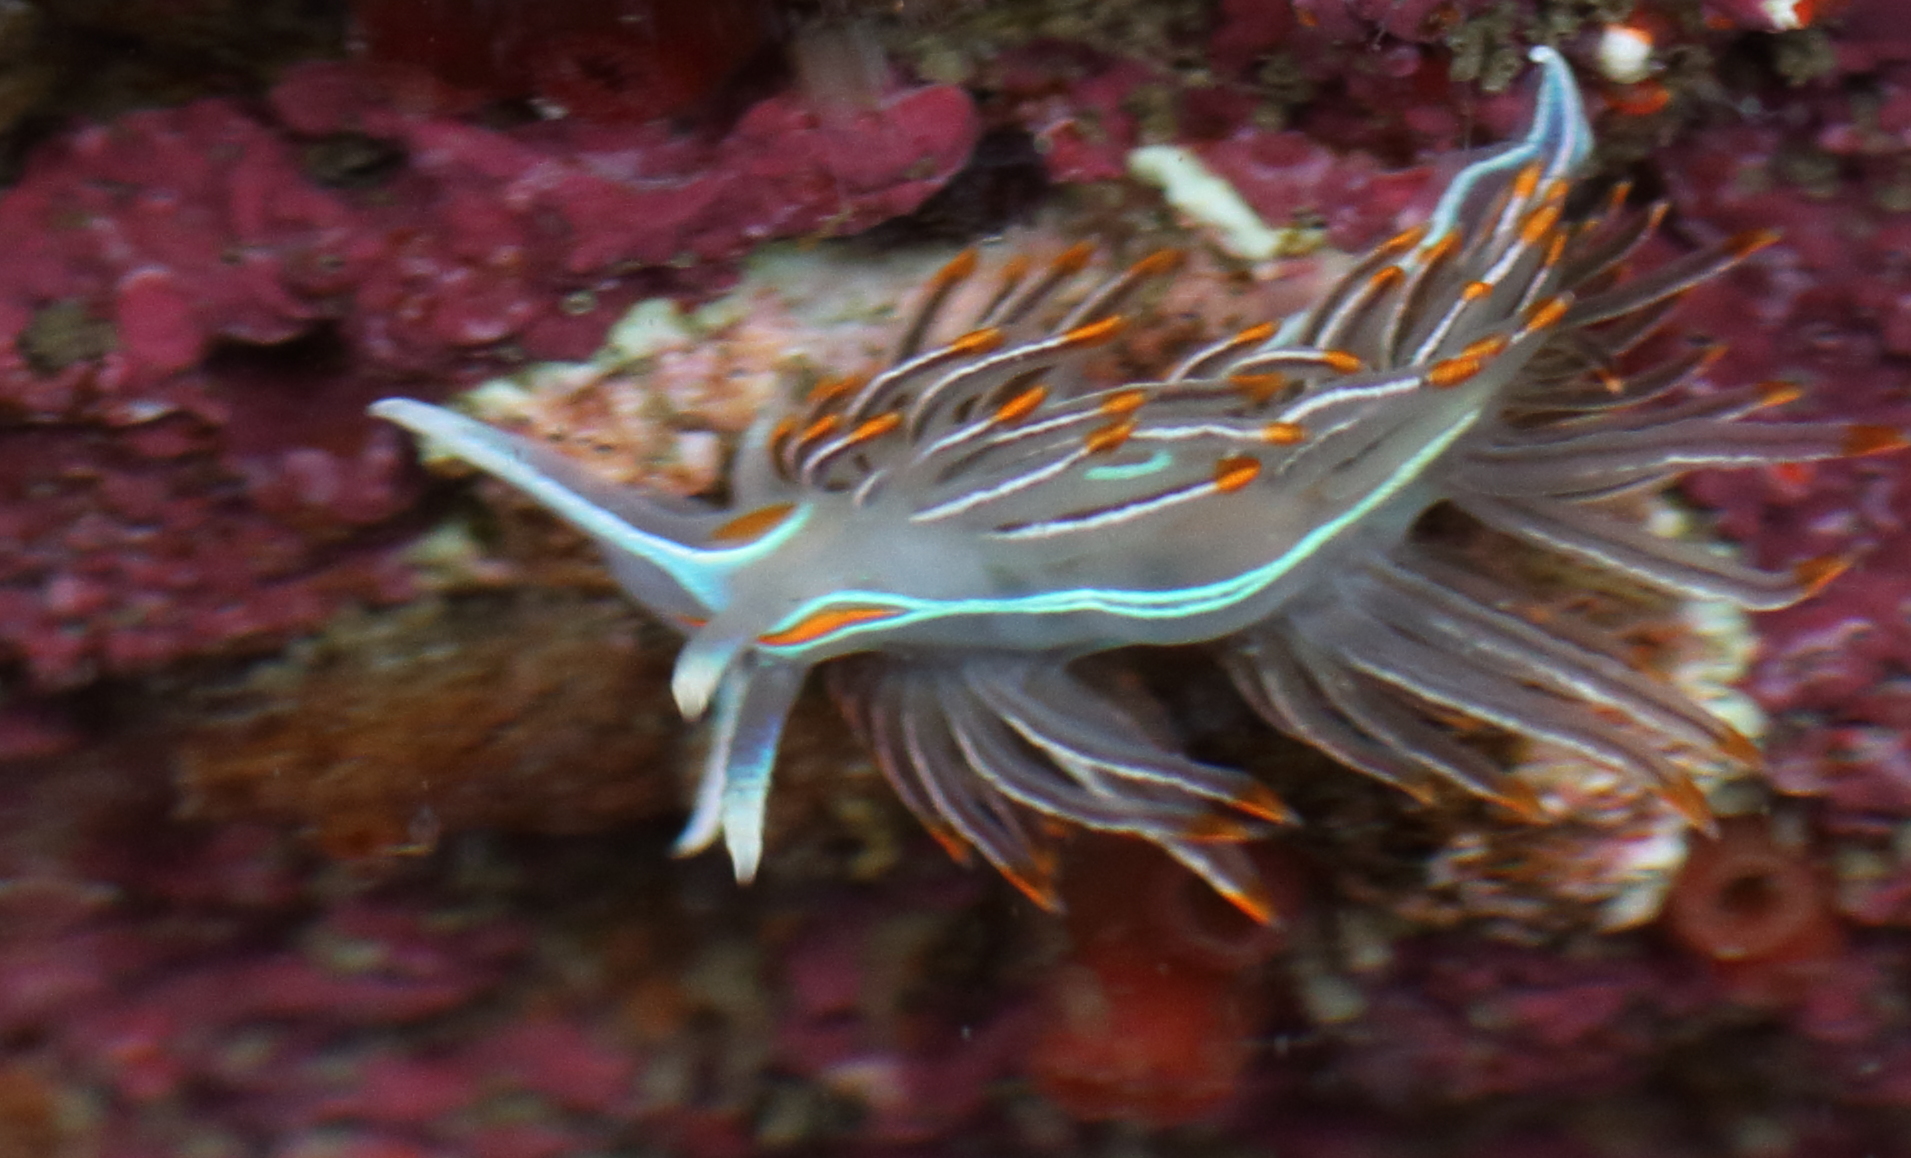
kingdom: Animalia
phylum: Mollusca
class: Gastropoda
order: Nudibranchia
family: Myrrhinidae
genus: Hermissenda
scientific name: Hermissenda crassicornis
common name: Hermissenda
